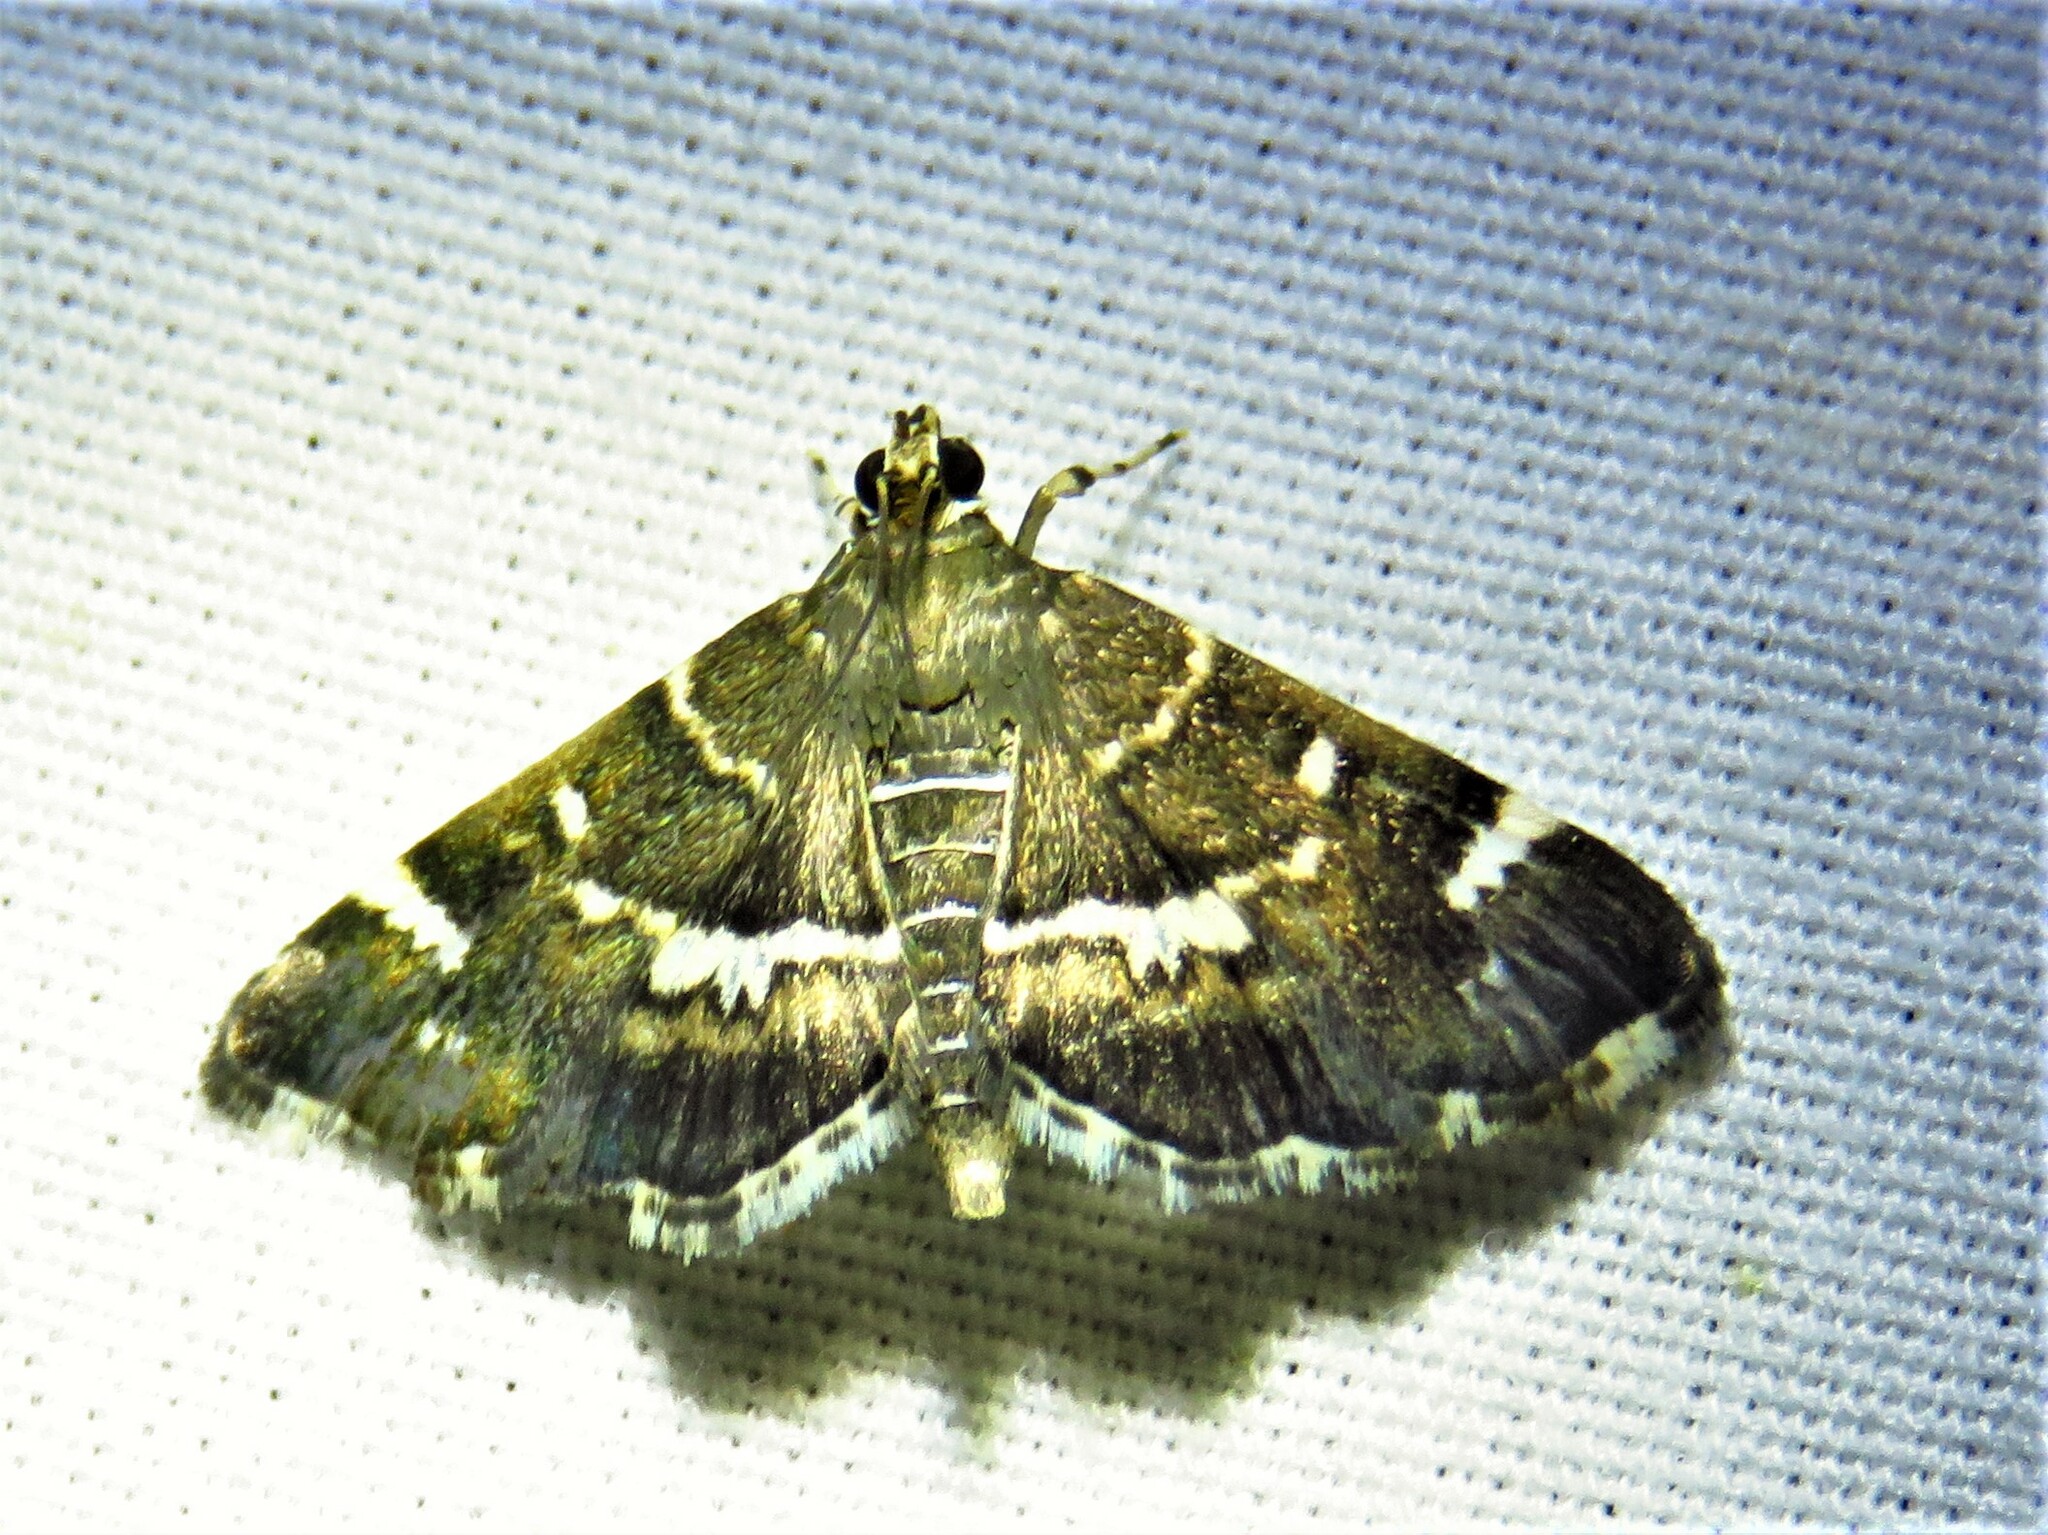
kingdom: Animalia
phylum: Arthropoda
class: Insecta
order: Lepidoptera
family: Crambidae
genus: Hymenia
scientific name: Hymenia perspectalis
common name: Spotted beet webworm
